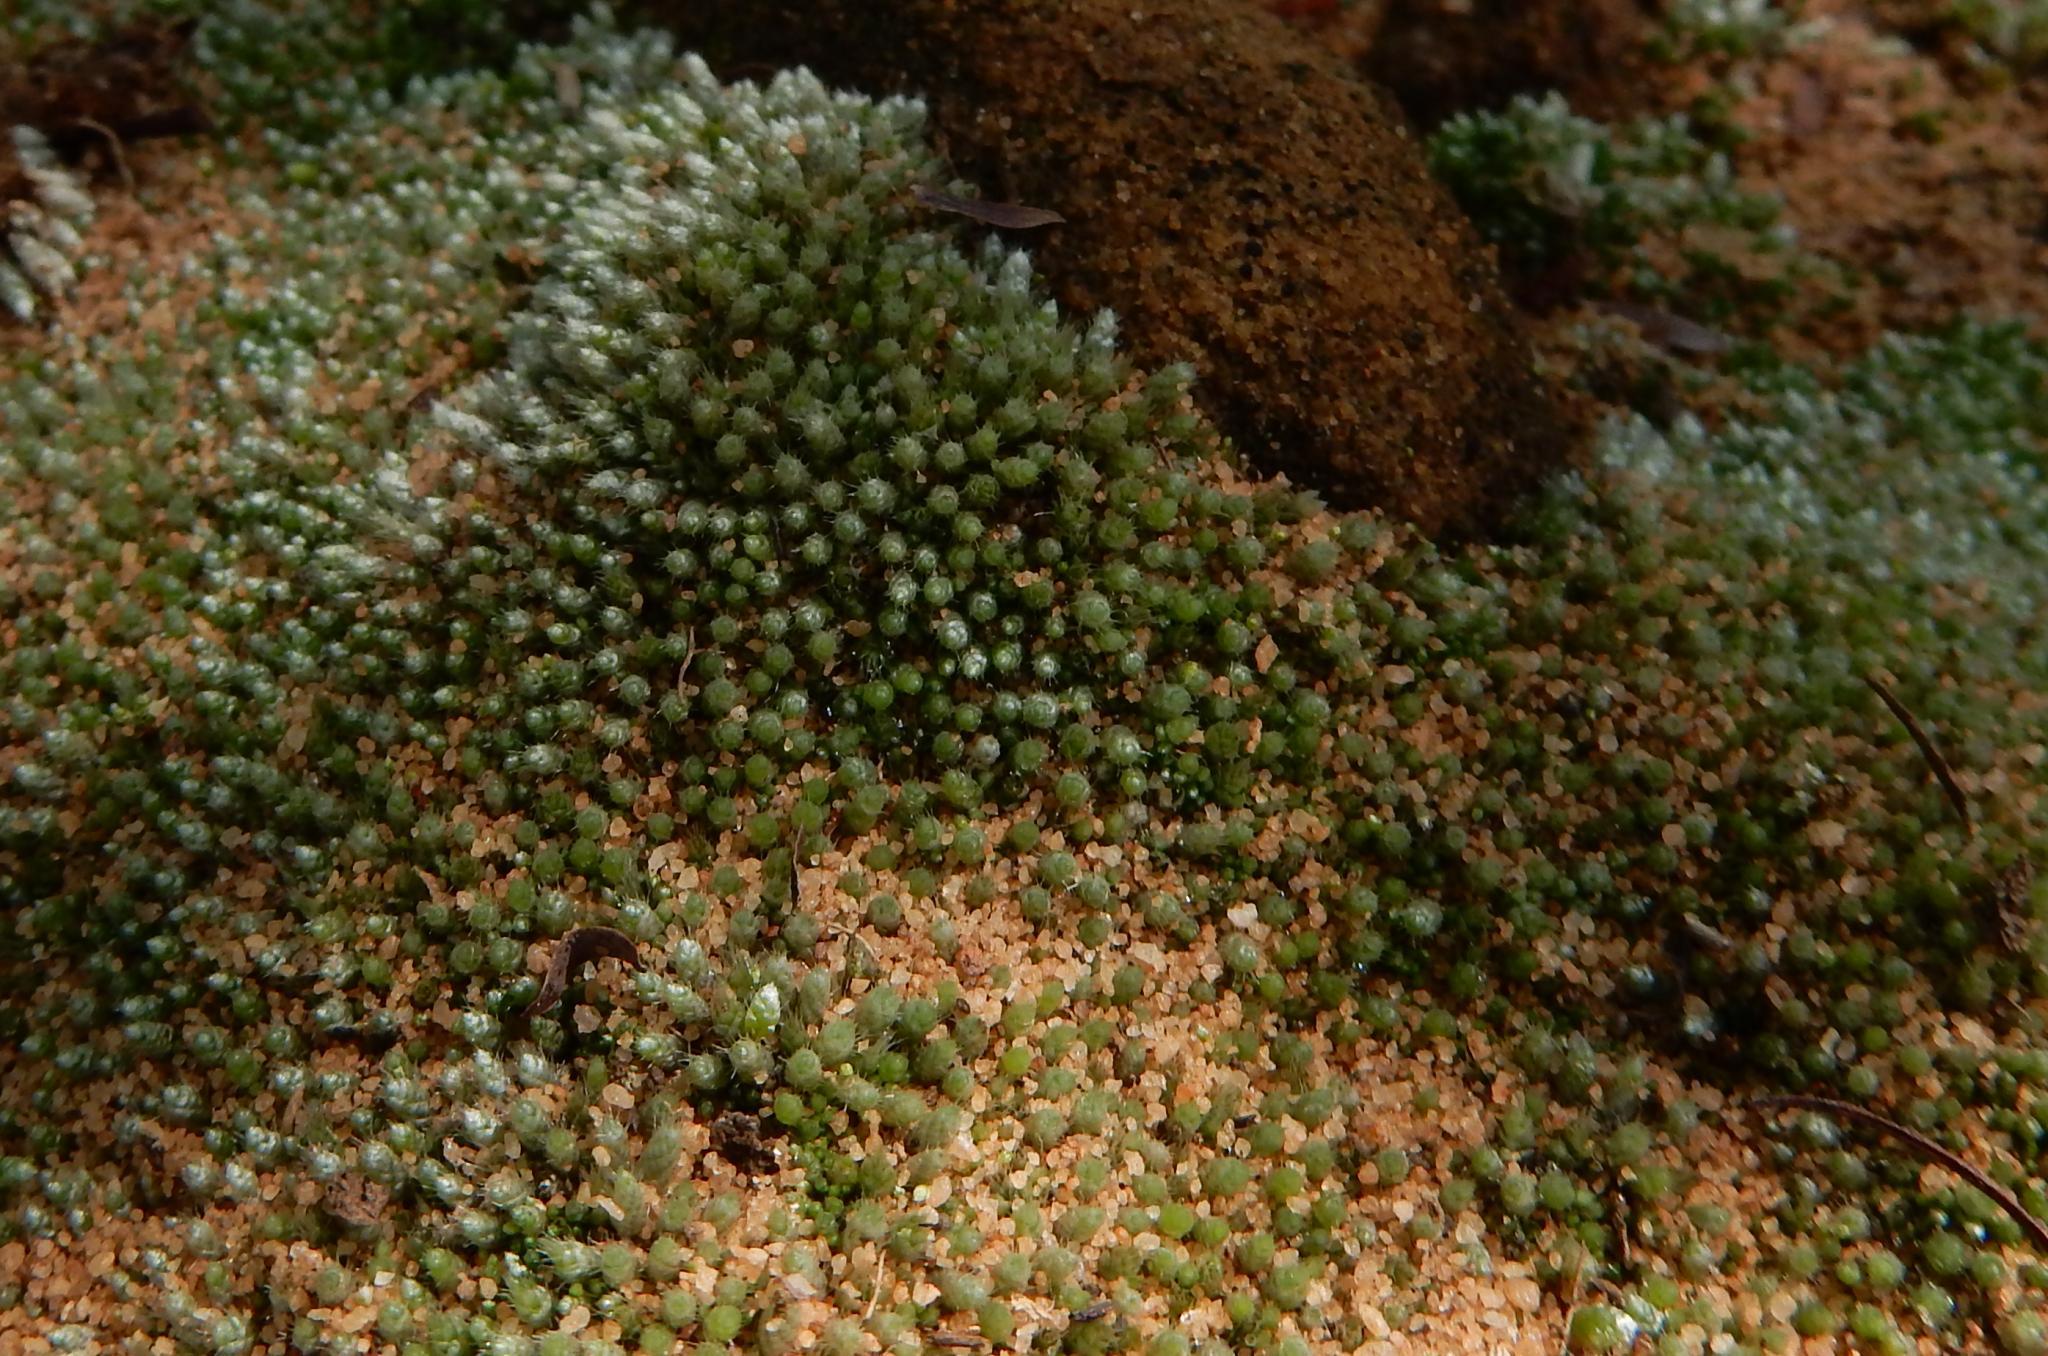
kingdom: Plantae
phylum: Bryophyta
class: Bryopsida
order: Bryales
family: Bryaceae
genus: Bryum
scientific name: Bryum argenteum
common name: Silver-moss
